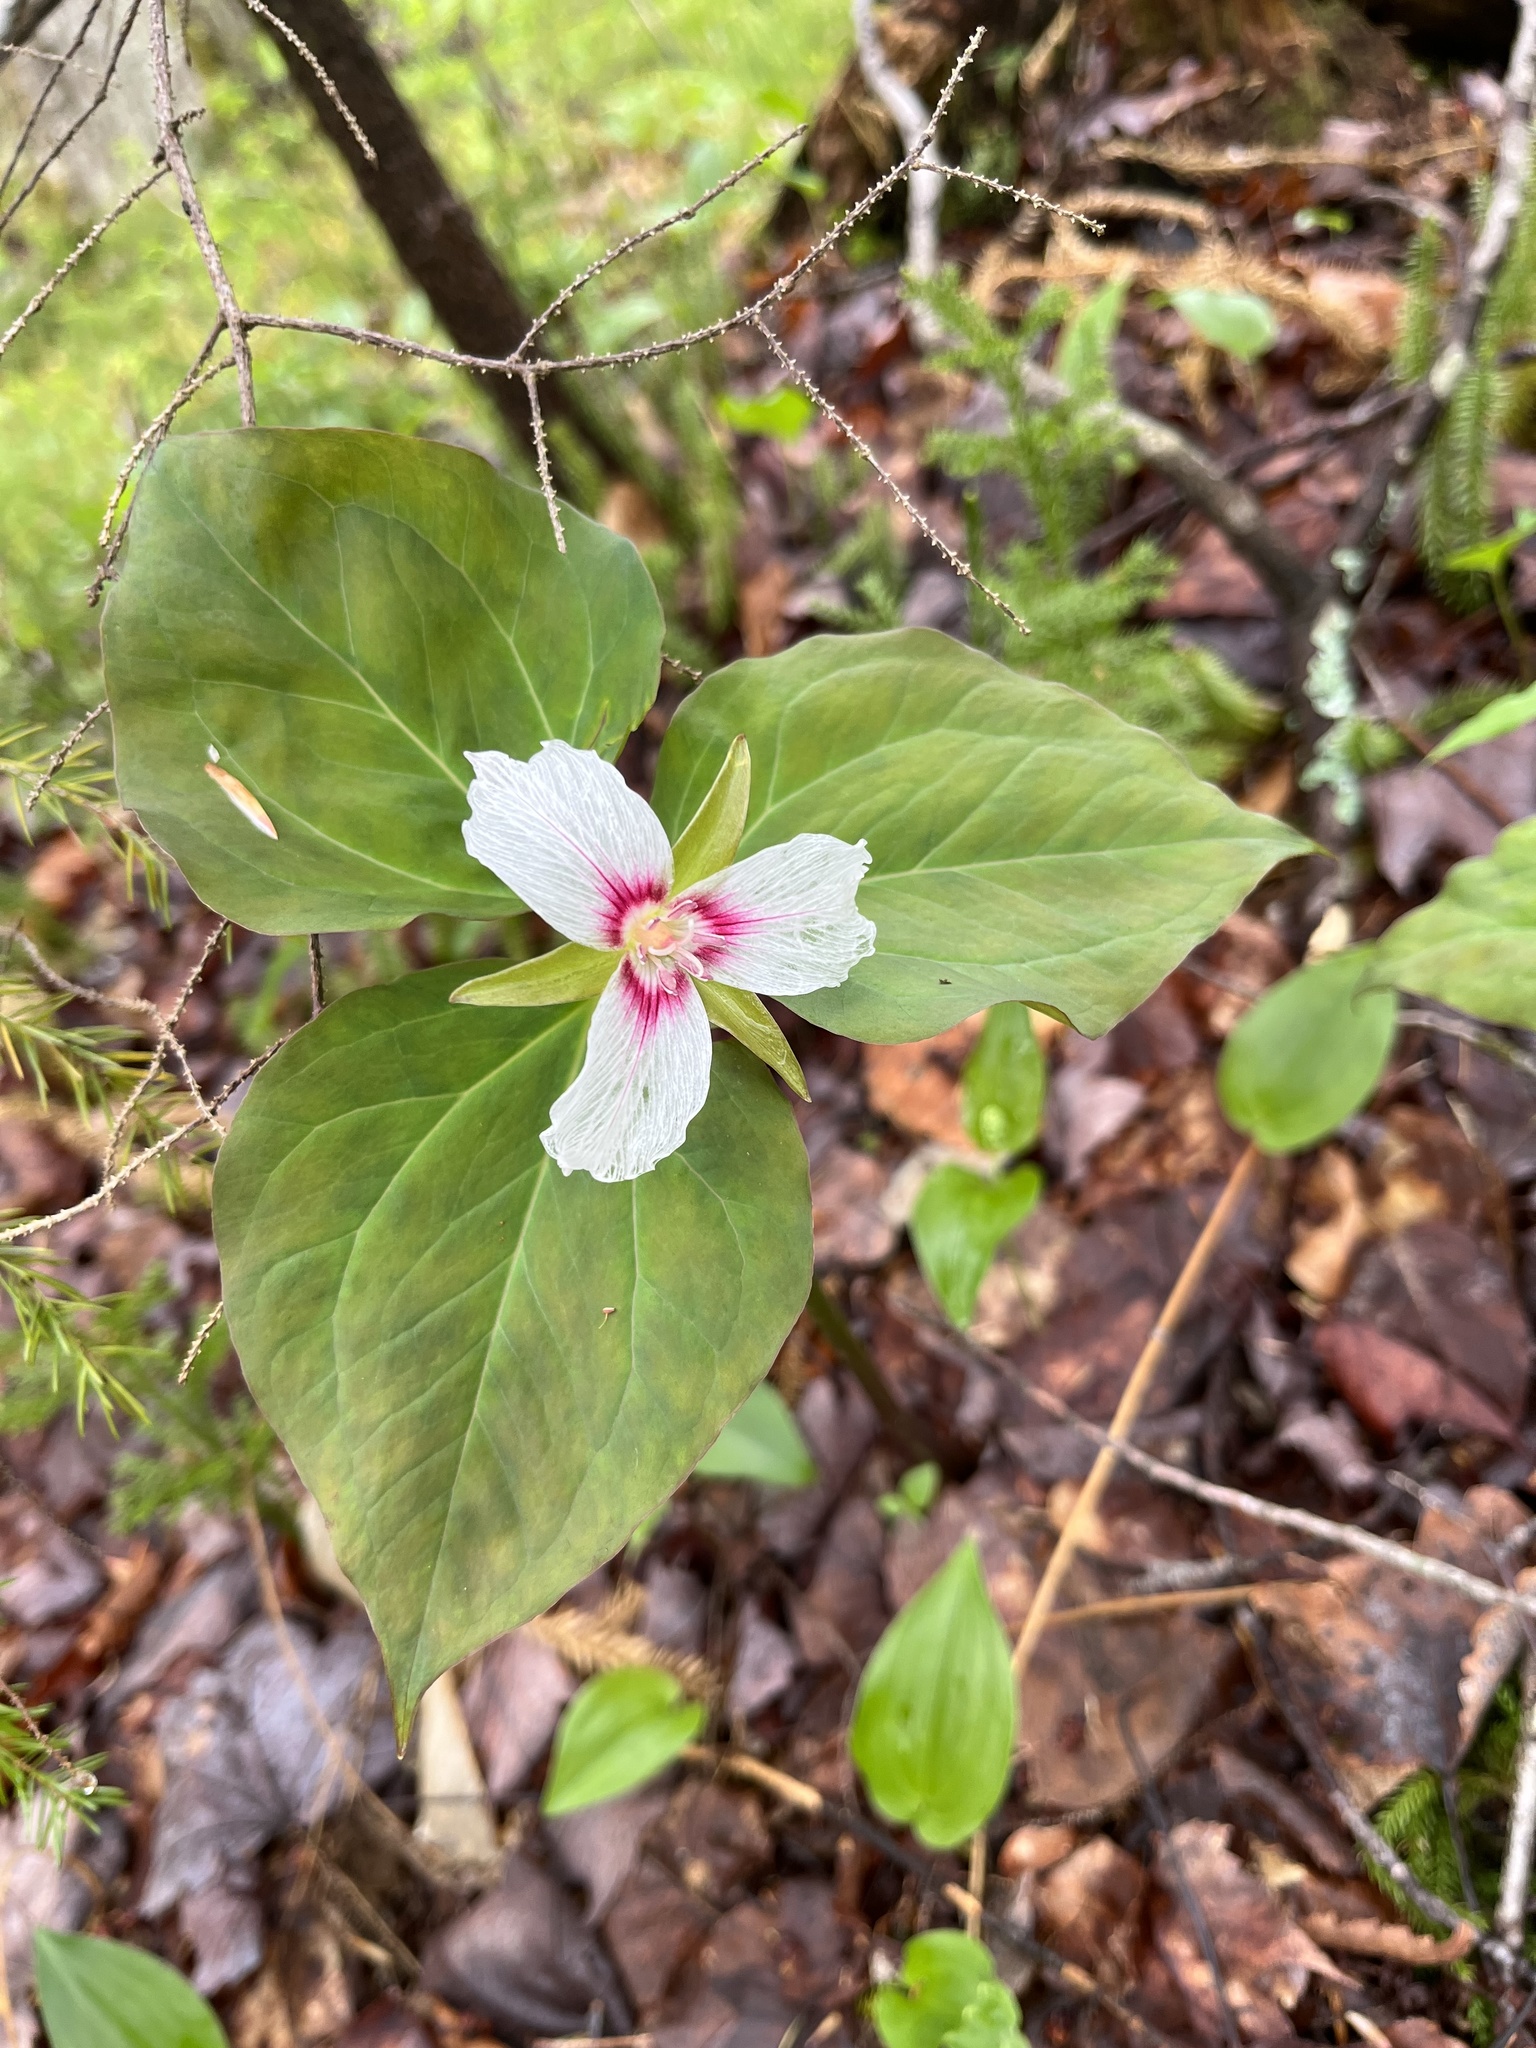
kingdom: Plantae
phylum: Tracheophyta
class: Liliopsida
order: Liliales
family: Melanthiaceae
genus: Trillium
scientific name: Trillium undulatum
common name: Paint trillium
